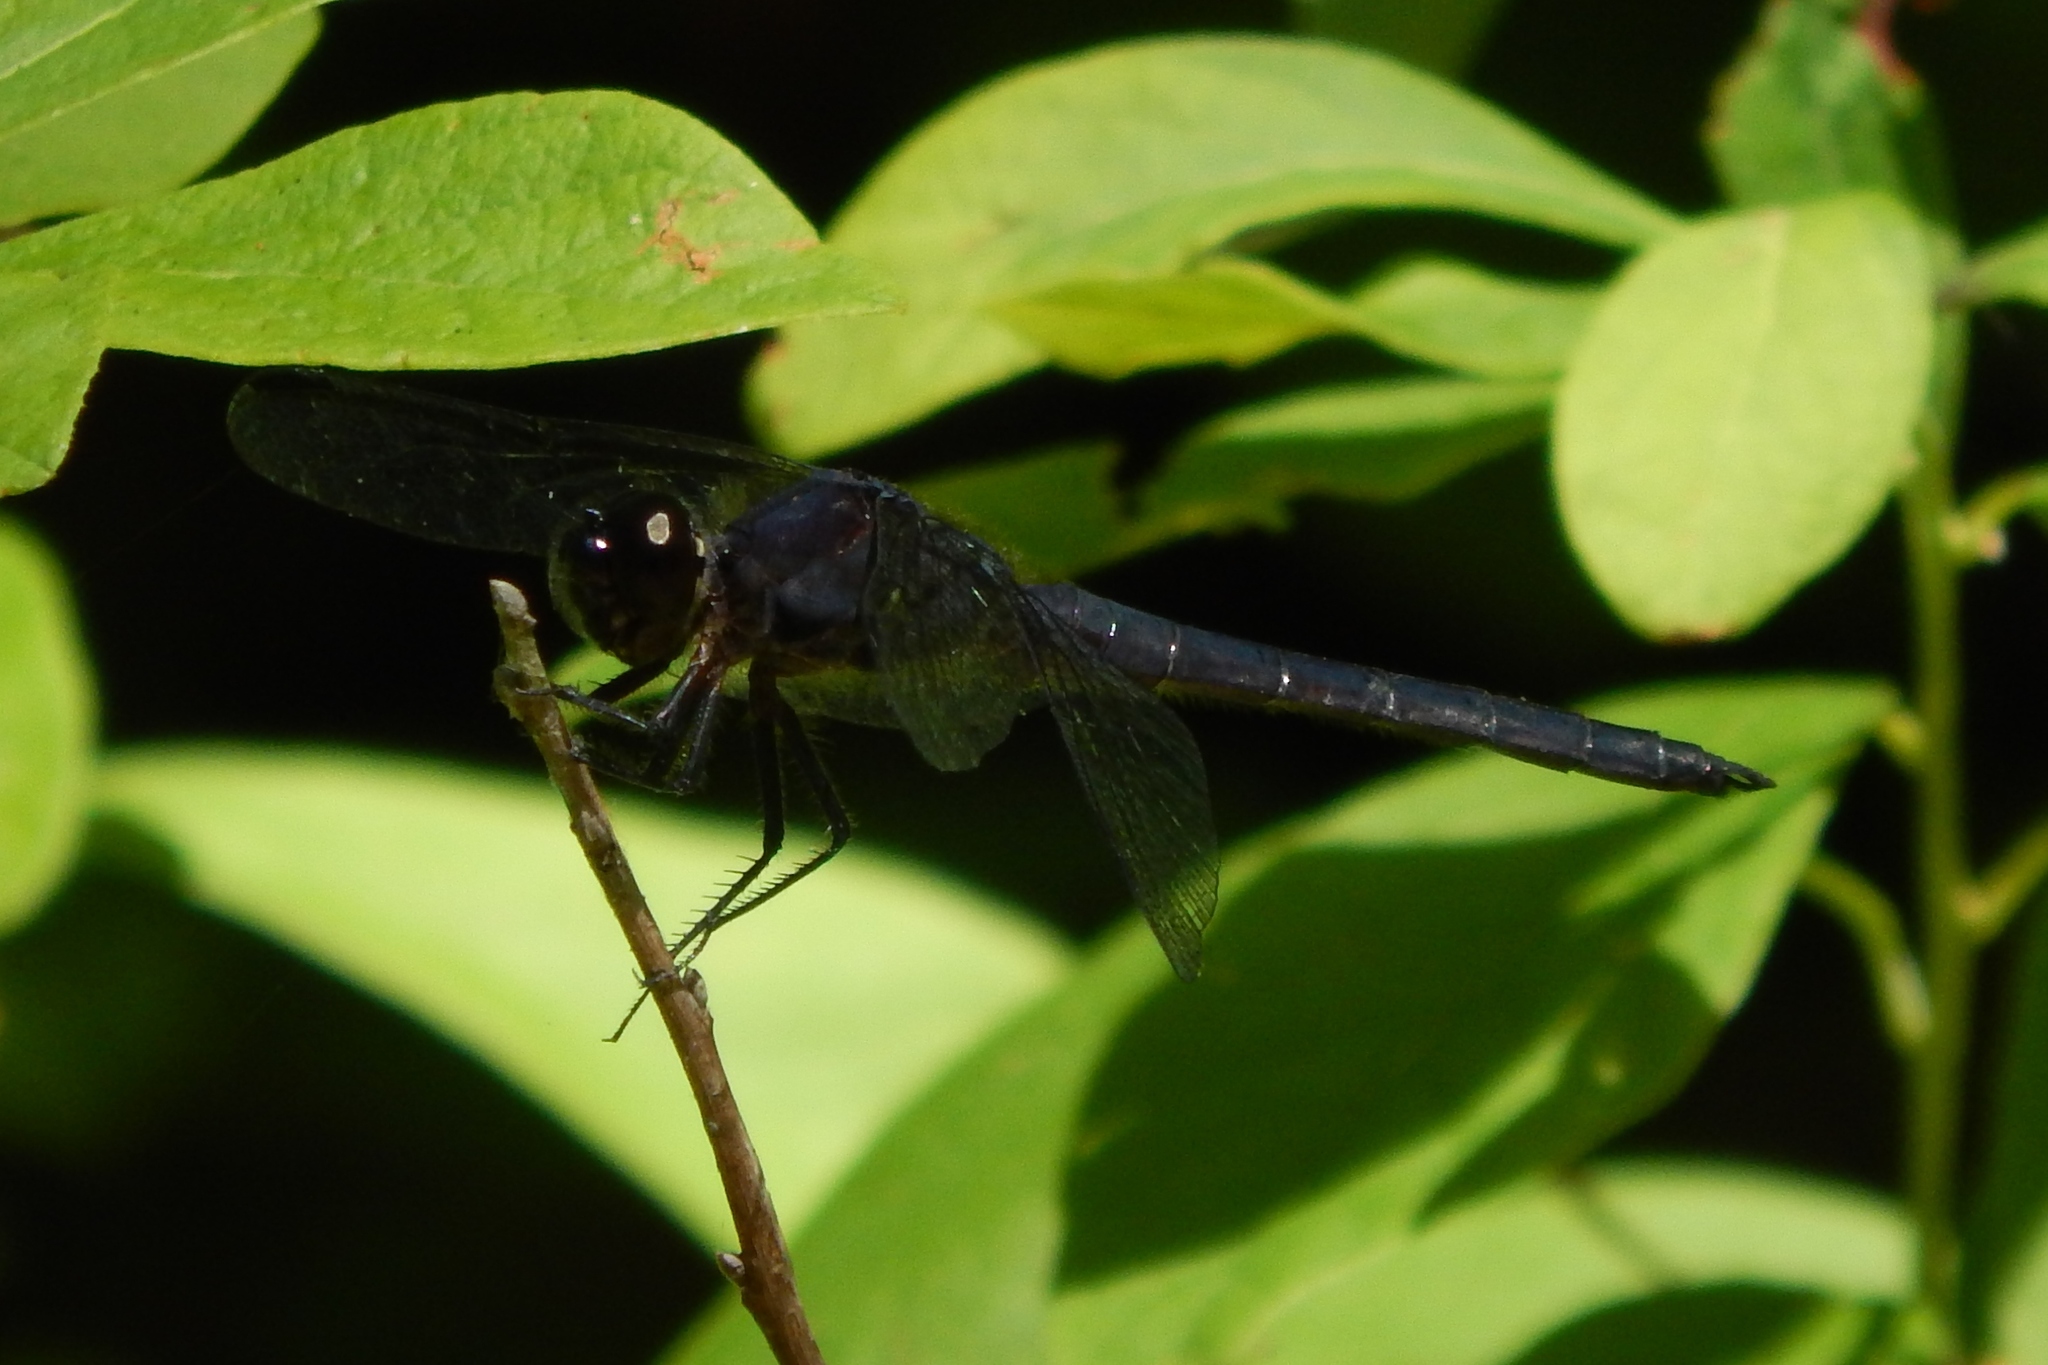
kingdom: Animalia
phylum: Arthropoda
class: Insecta
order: Odonata
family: Libellulidae
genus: Libellula
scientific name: Libellula incesta
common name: Slaty skimmer
